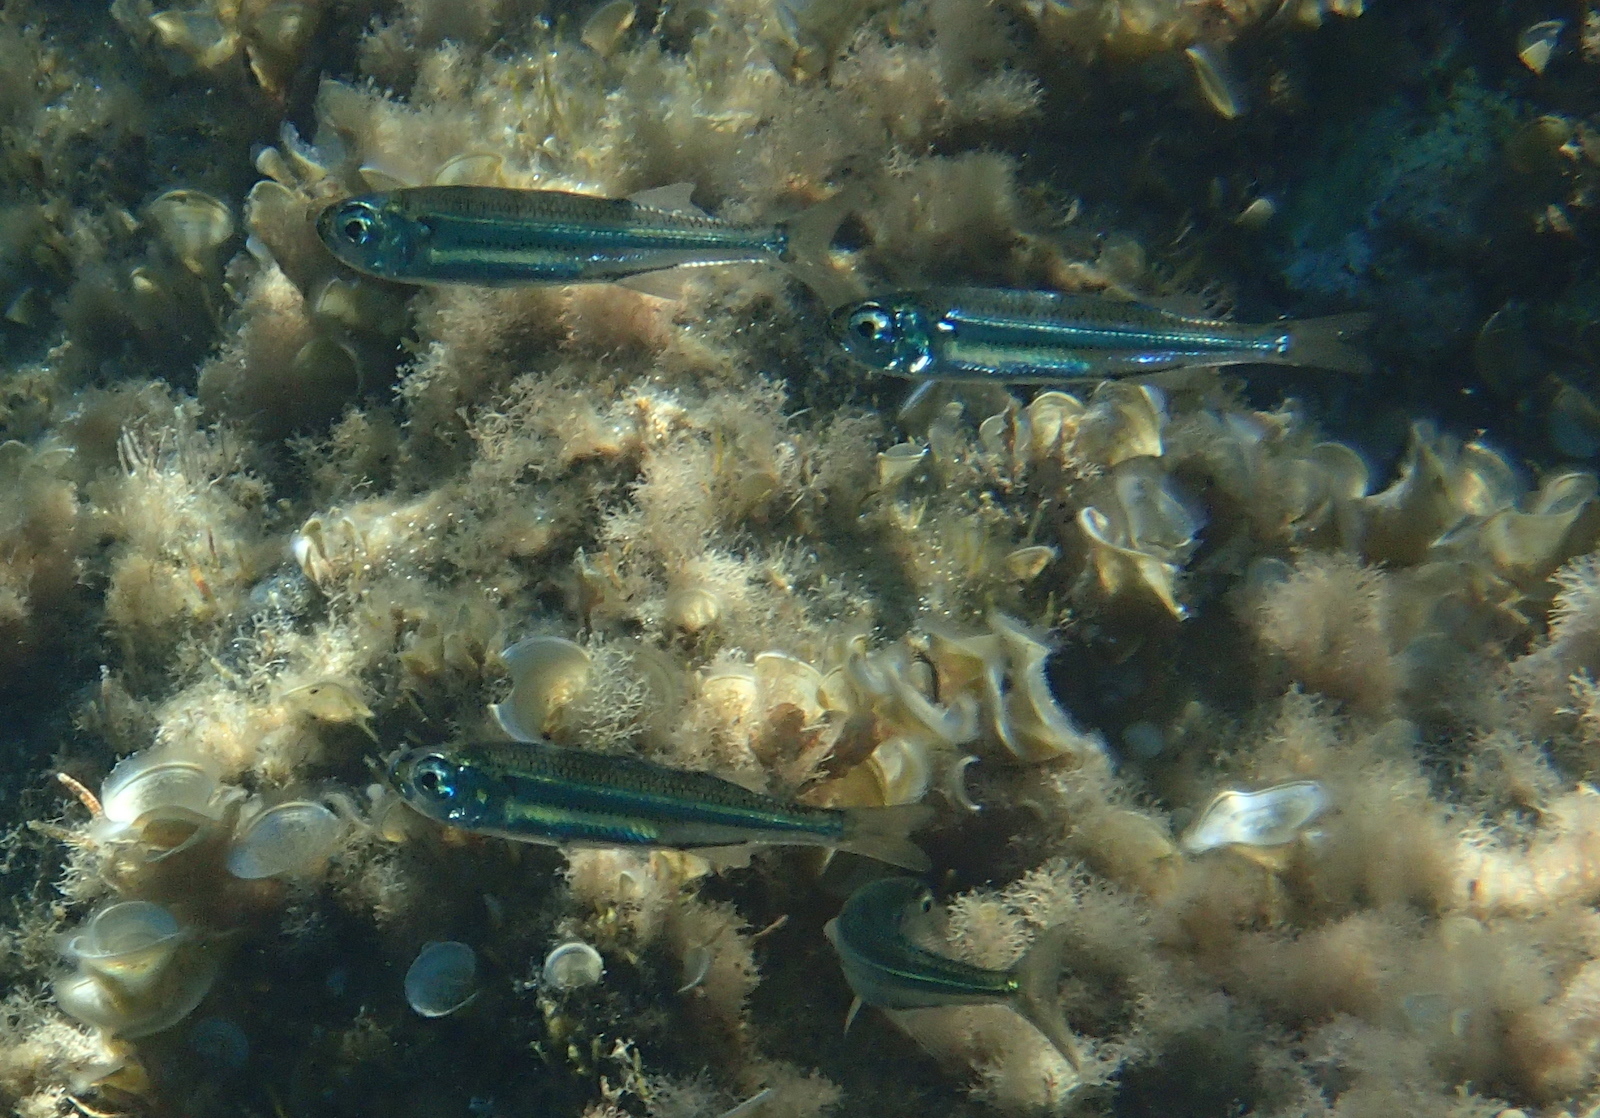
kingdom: Animalia
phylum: Chordata
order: Atheriniformes
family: Atherinidae
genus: Atherina
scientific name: Atherina boyeri
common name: Big-scale sand smelt
